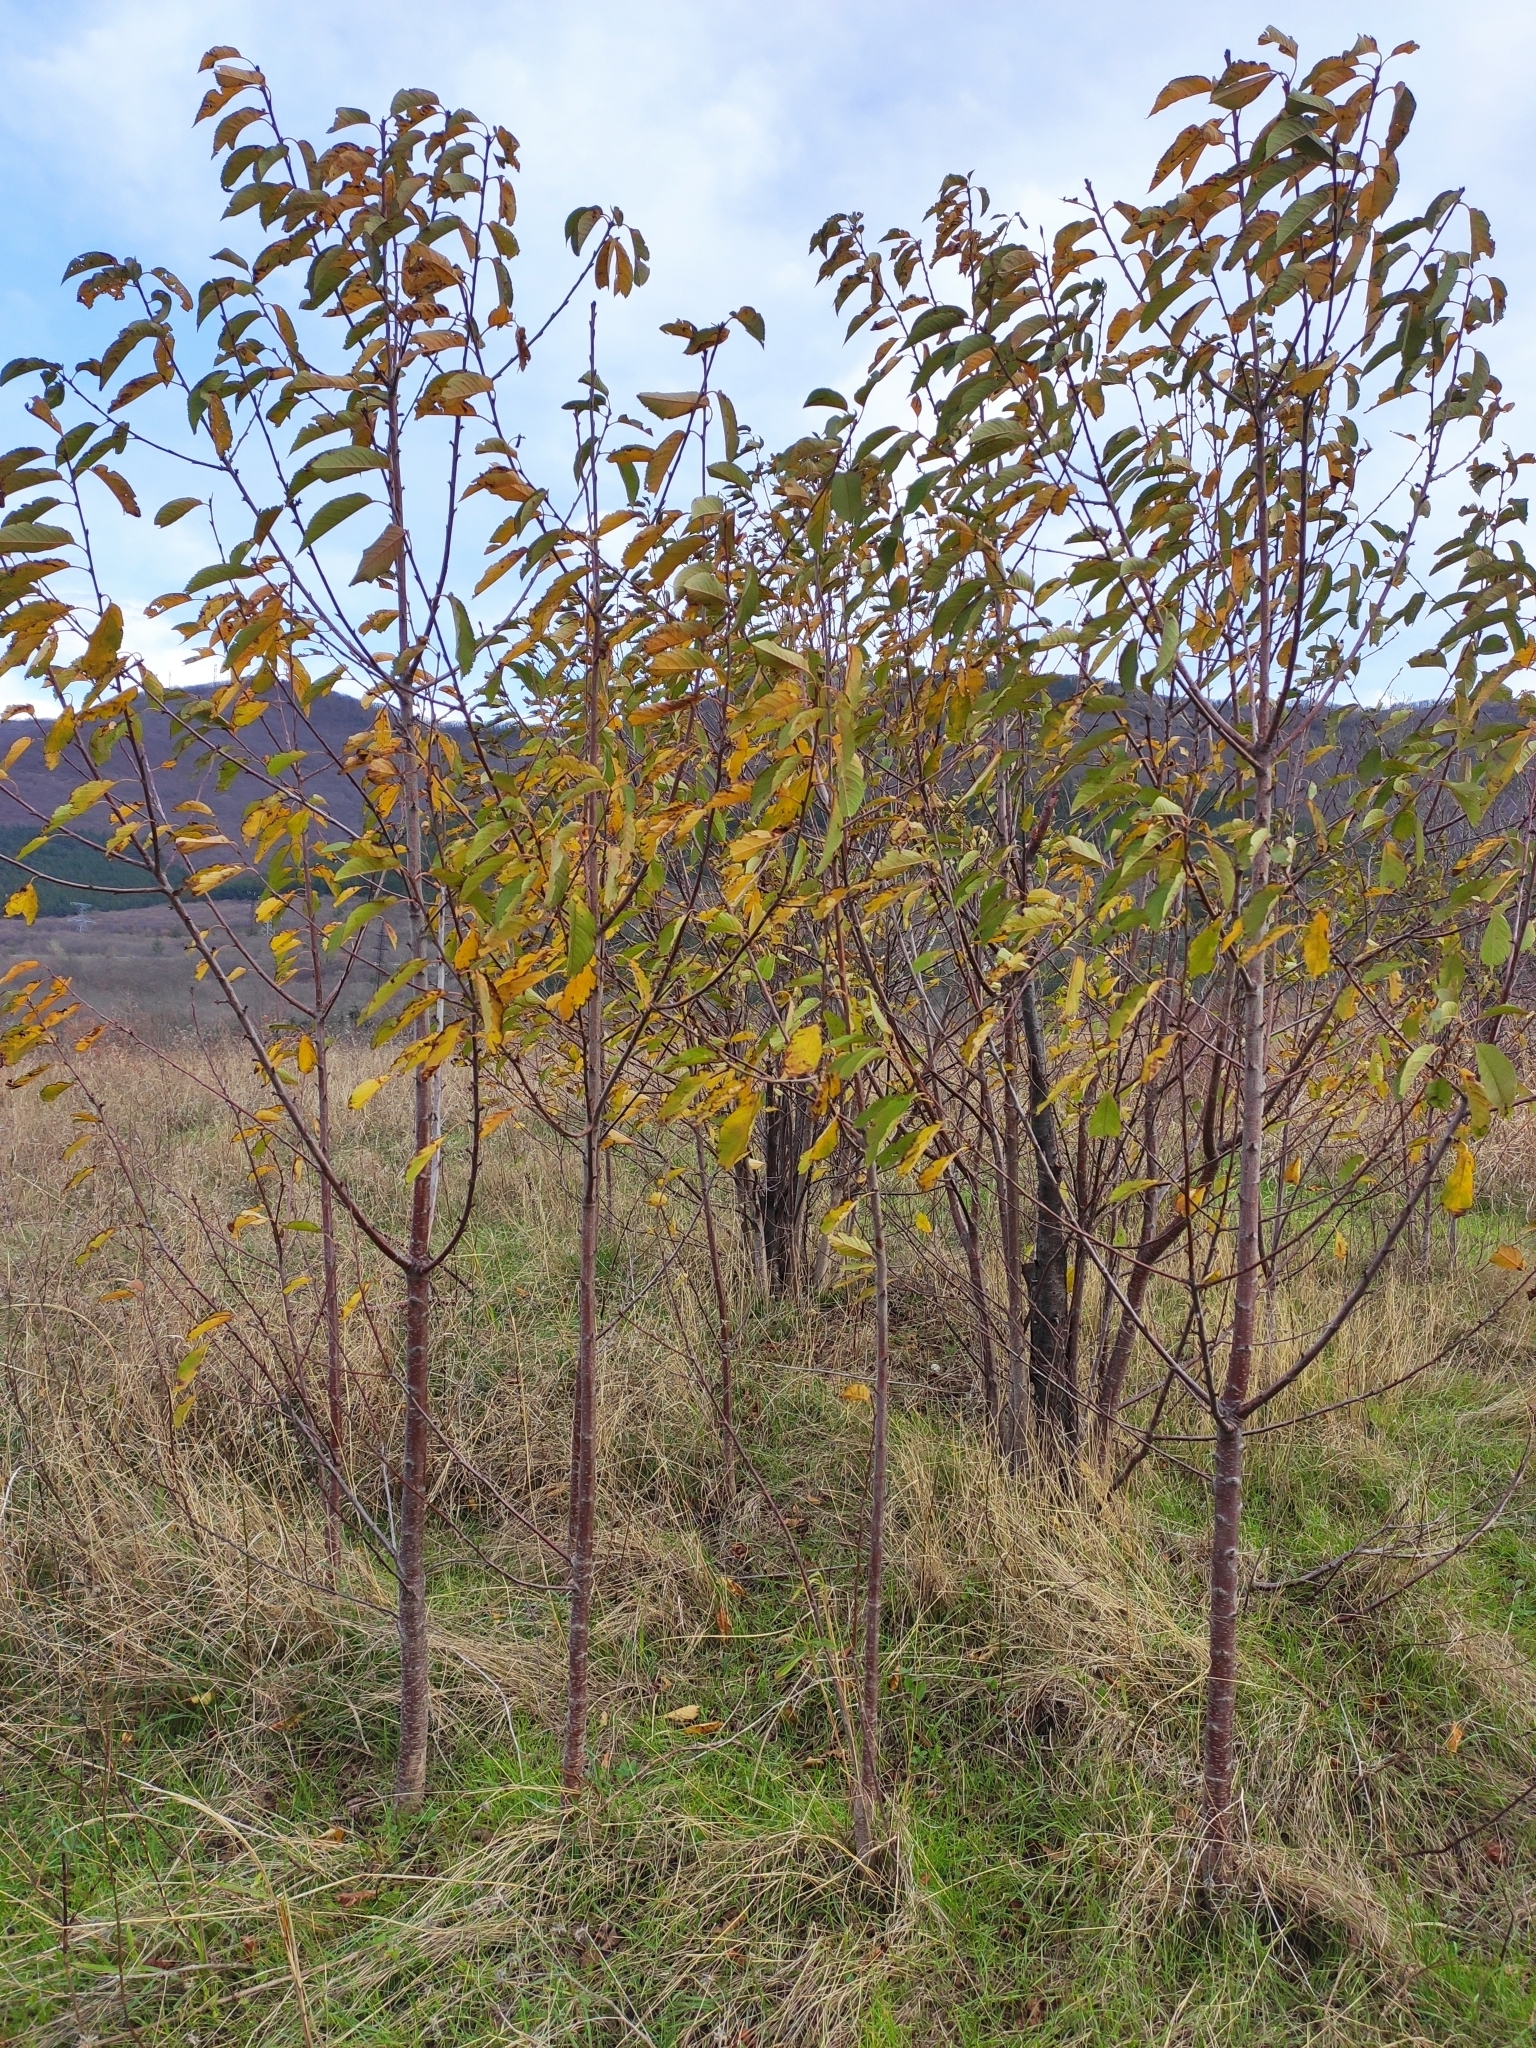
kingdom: Plantae
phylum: Tracheophyta
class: Magnoliopsida
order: Rosales
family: Rosaceae
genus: Prunus
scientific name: Prunus avium
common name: Sweet cherry
